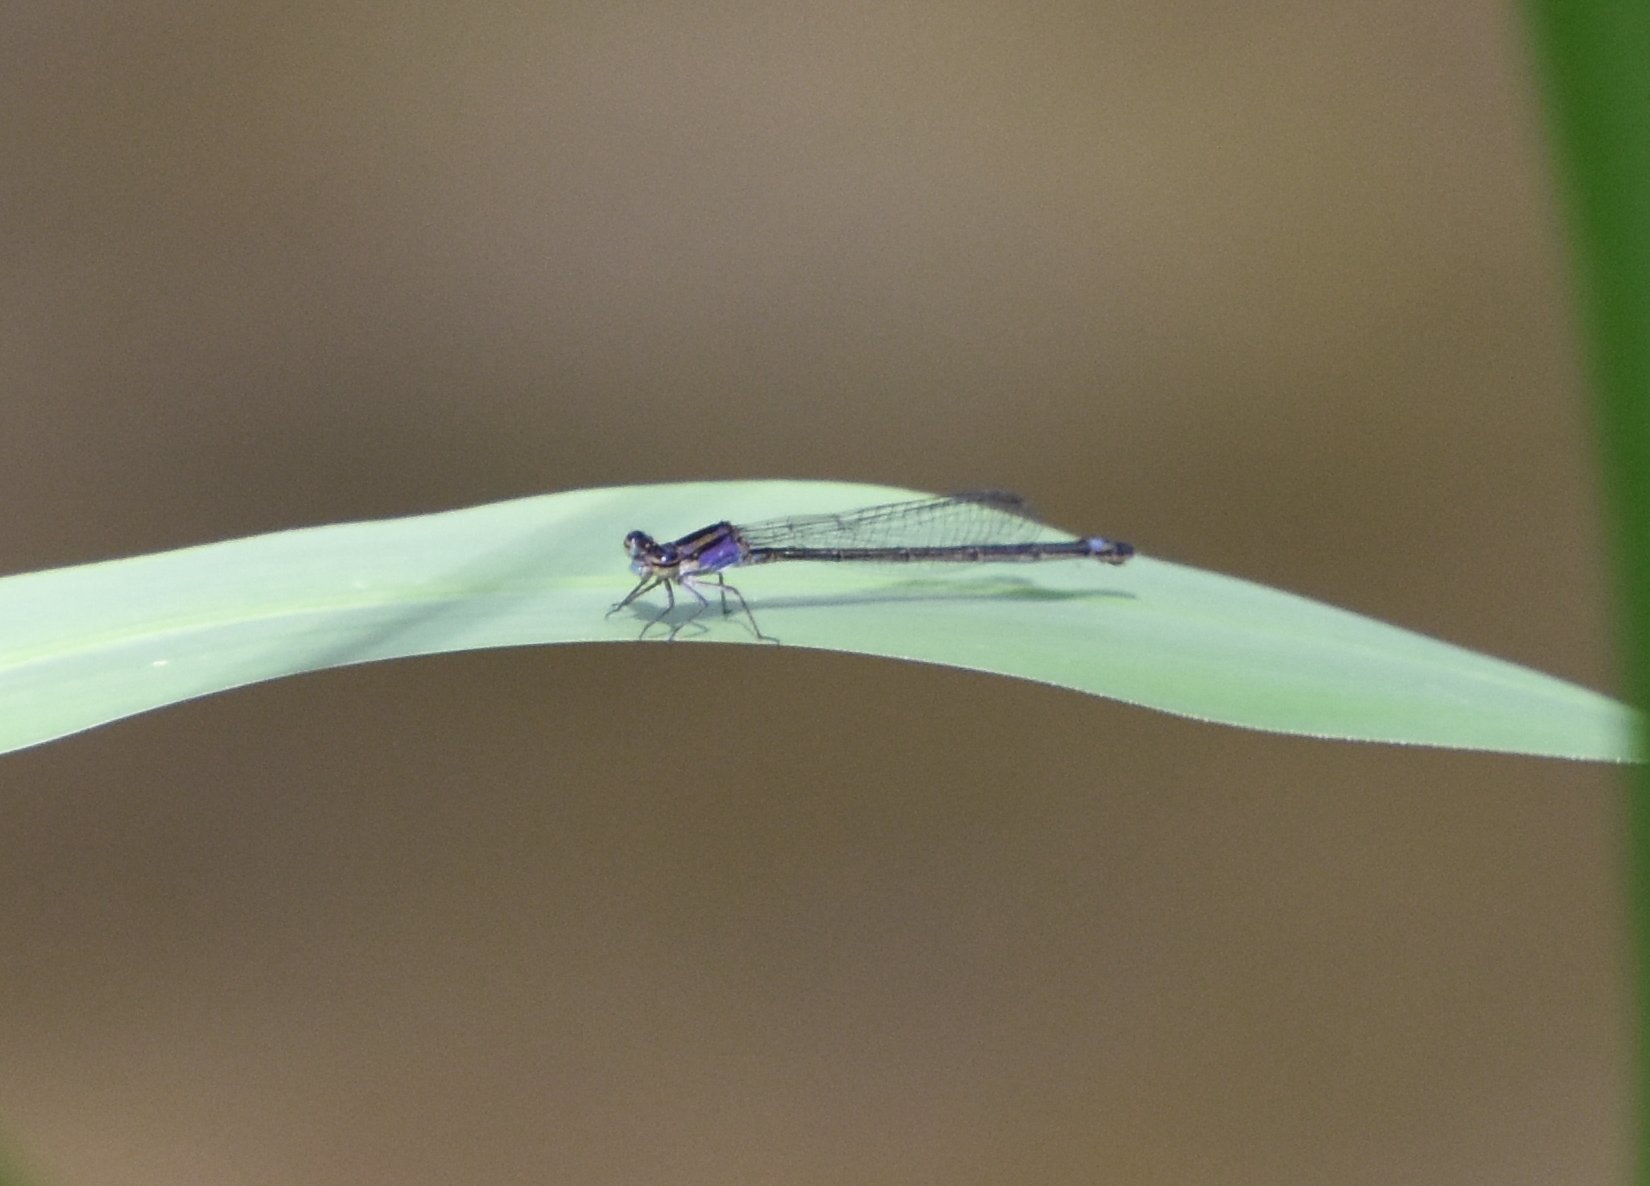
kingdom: Animalia
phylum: Arthropoda
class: Insecta
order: Odonata
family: Coenagrionidae
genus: Enallagma
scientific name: Enallagma cardenium
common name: Purple bluet
